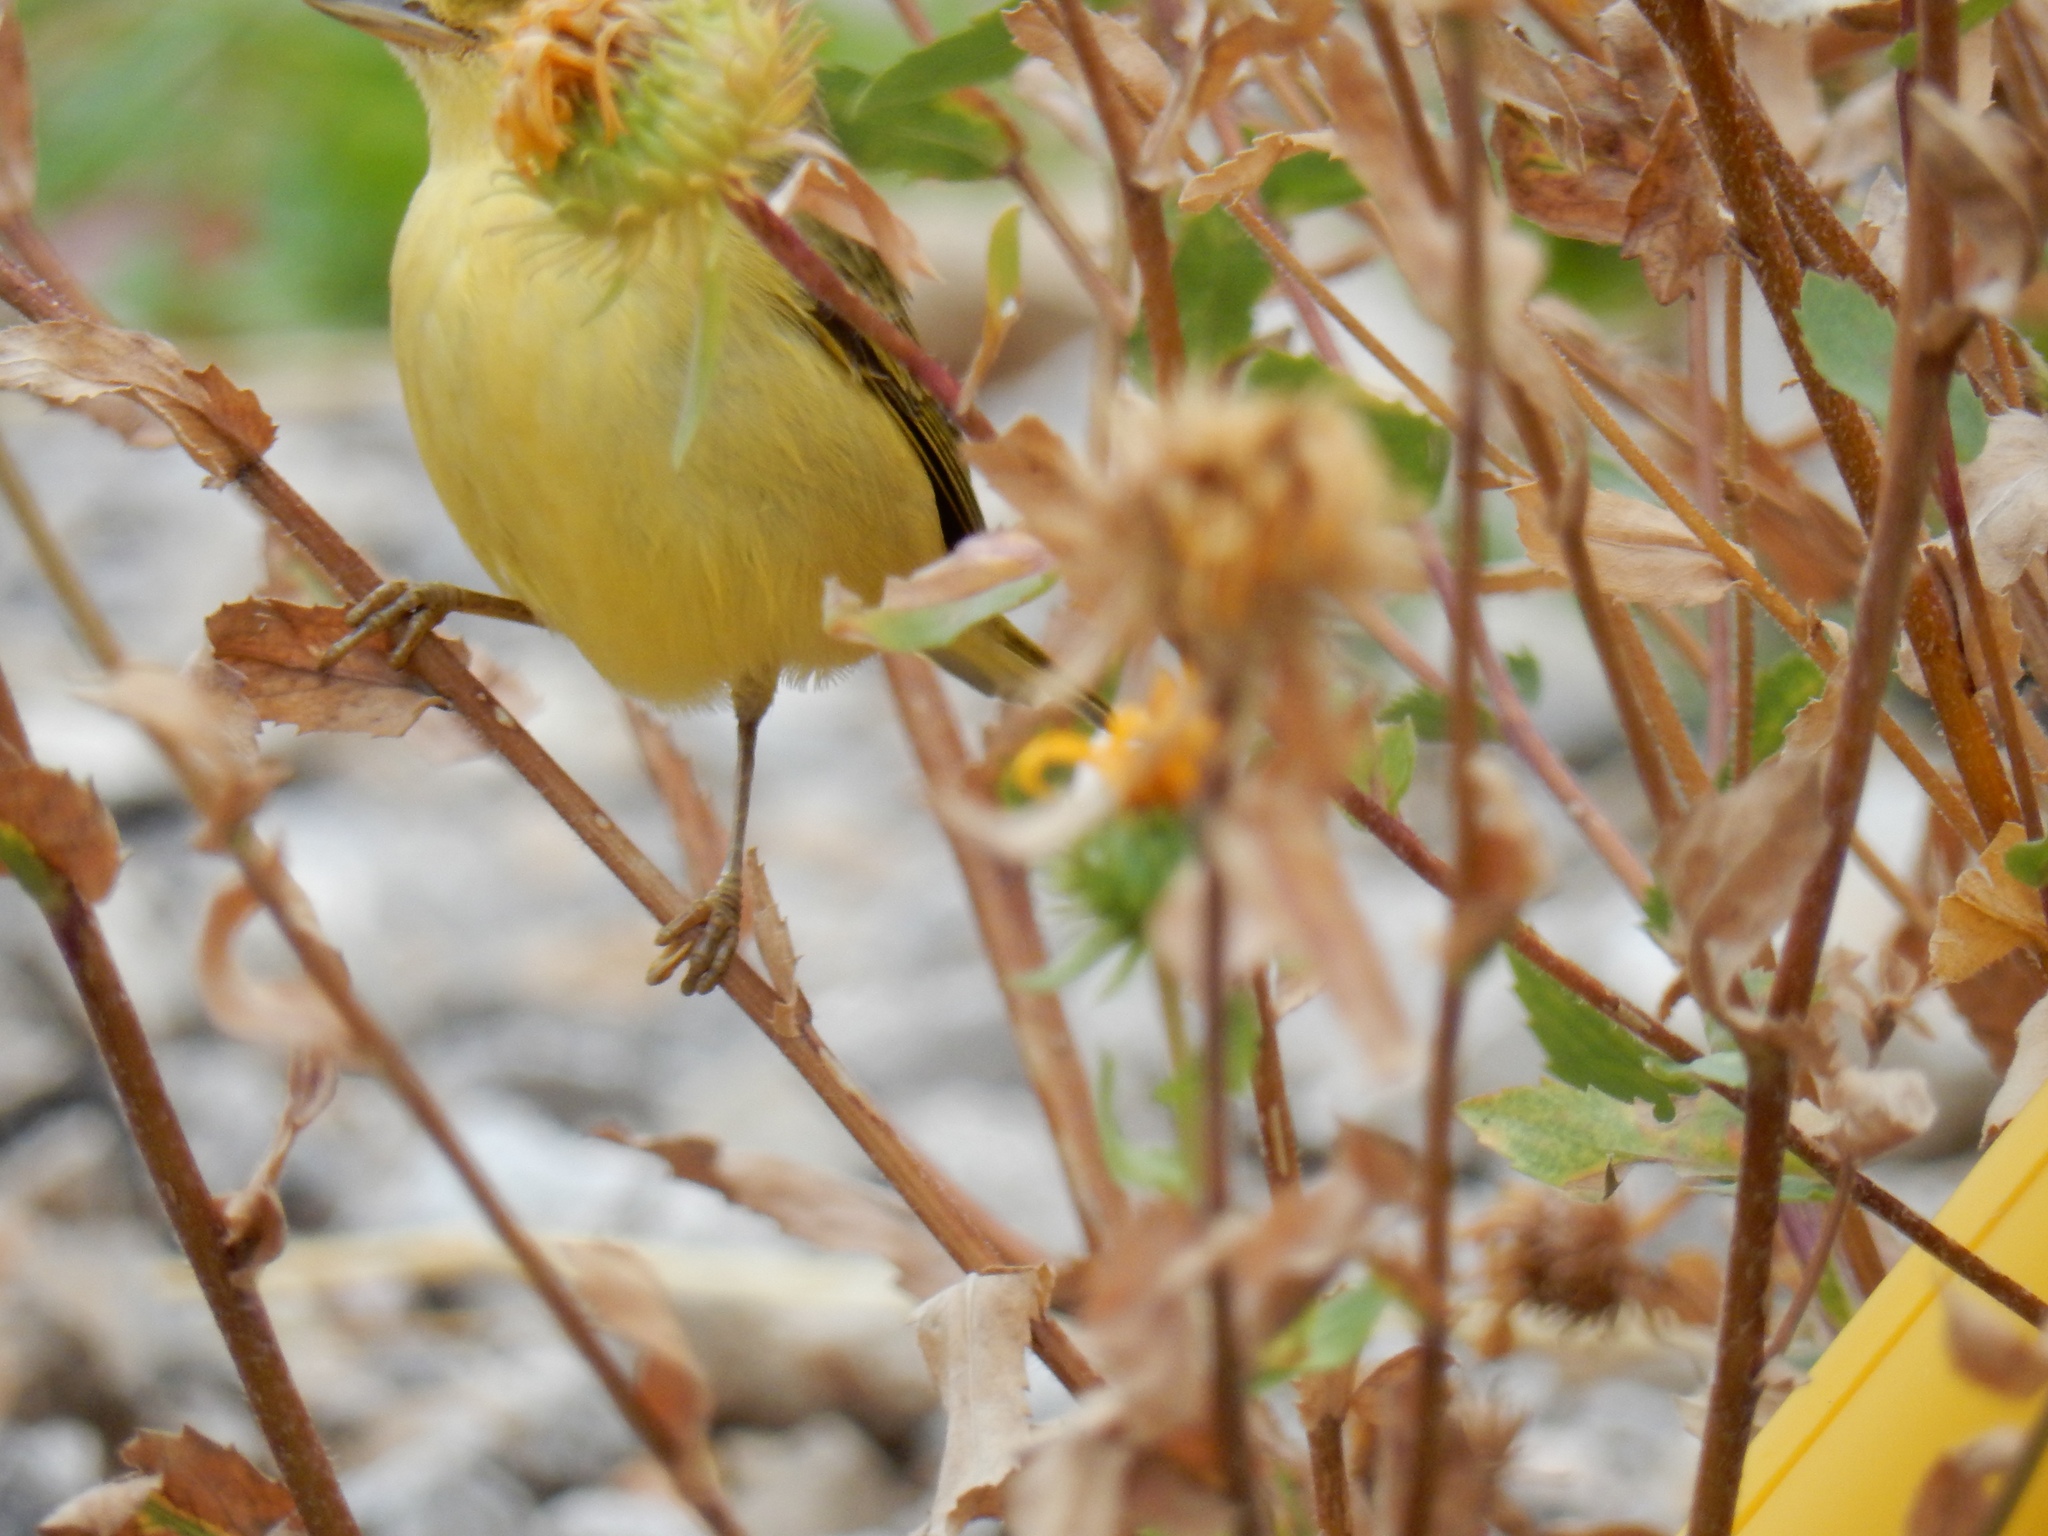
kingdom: Animalia
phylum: Chordata
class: Aves
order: Passeriformes
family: Parulidae
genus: Setophaga
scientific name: Setophaga petechia
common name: Yellow warbler
